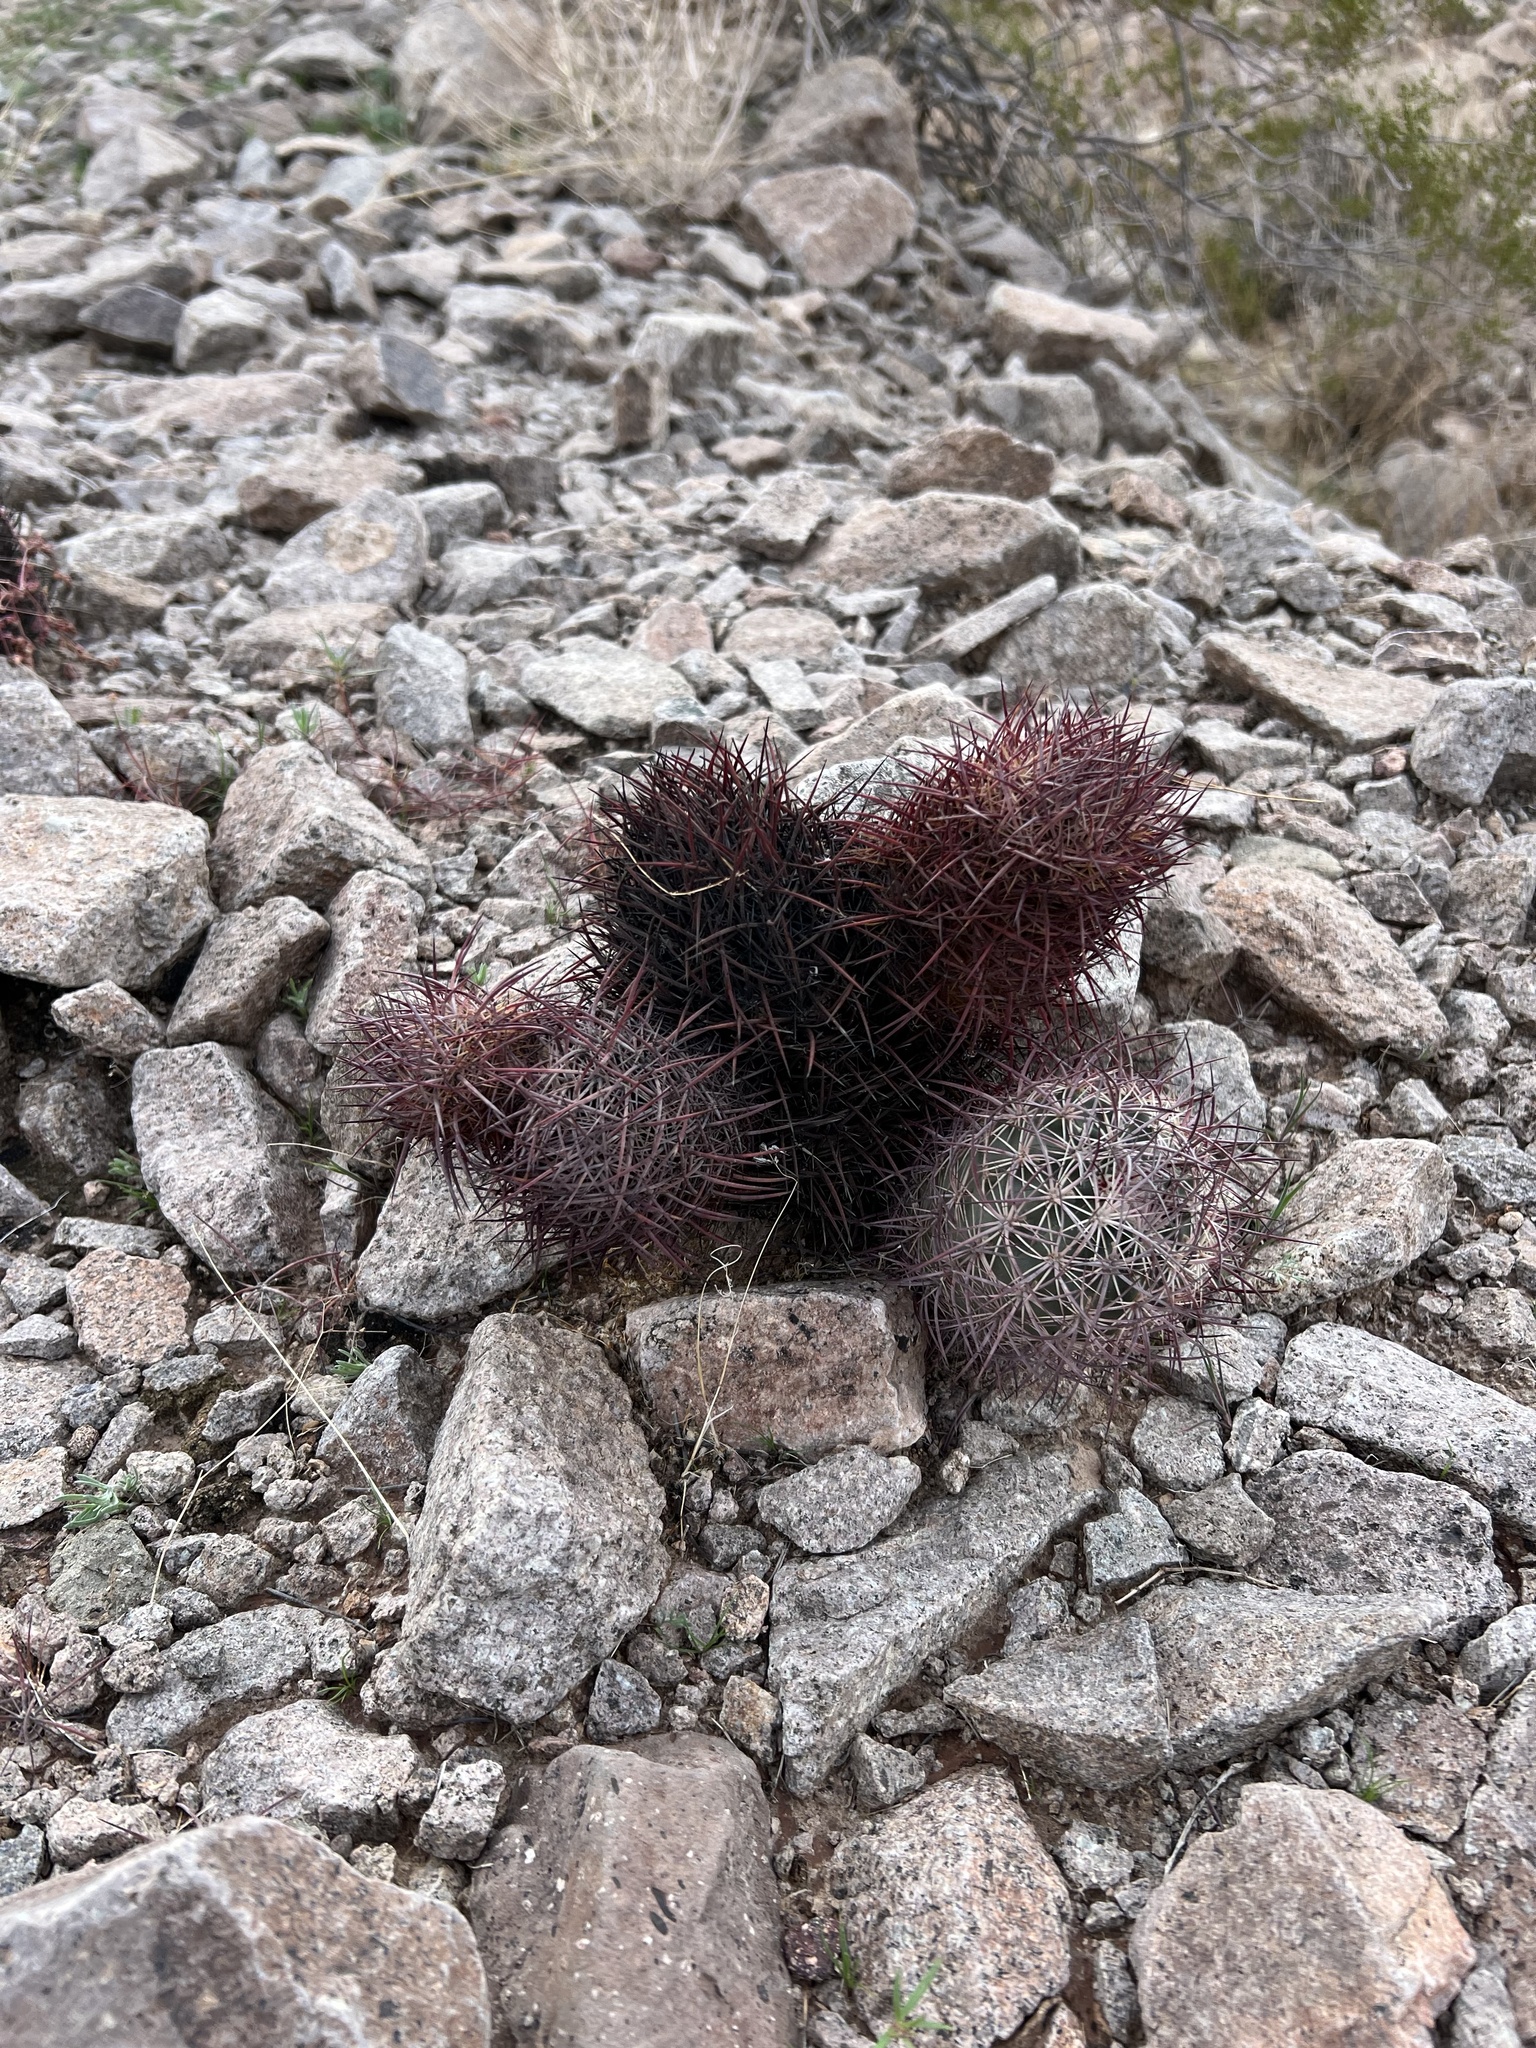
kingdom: Plantae
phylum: Tracheophyta
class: Magnoliopsida
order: Caryophyllales
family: Cactaceae
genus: Sclerocactus
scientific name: Sclerocactus johnsonii
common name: Eight-spine fishhook cactus
